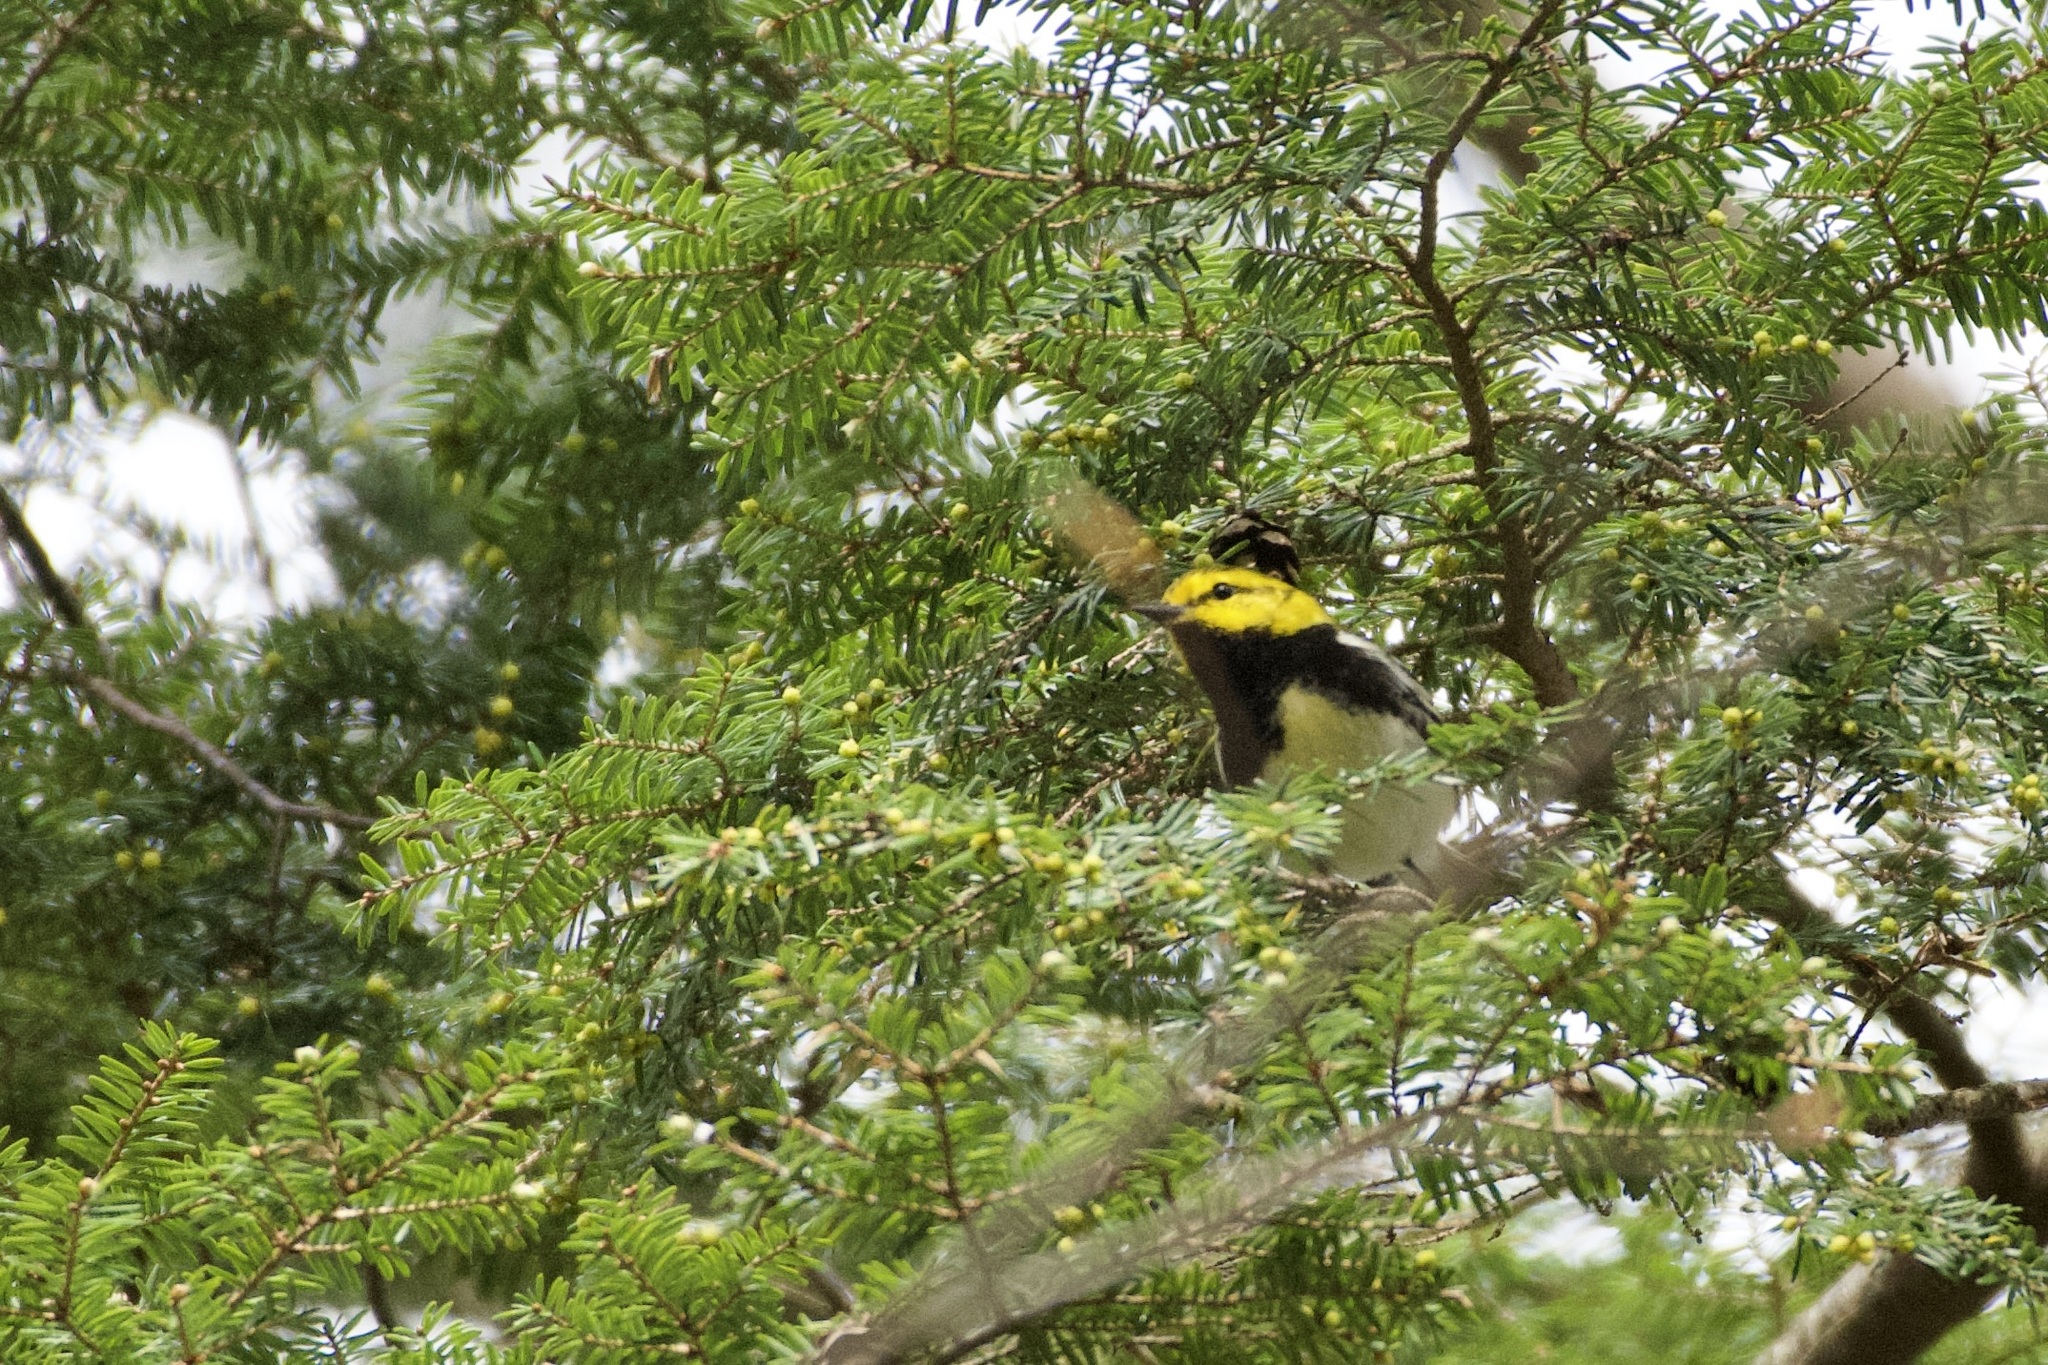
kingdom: Animalia
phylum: Chordata
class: Aves
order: Passeriformes
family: Parulidae
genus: Setophaga
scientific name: Setophaga virens
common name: Black-throated green warbler
